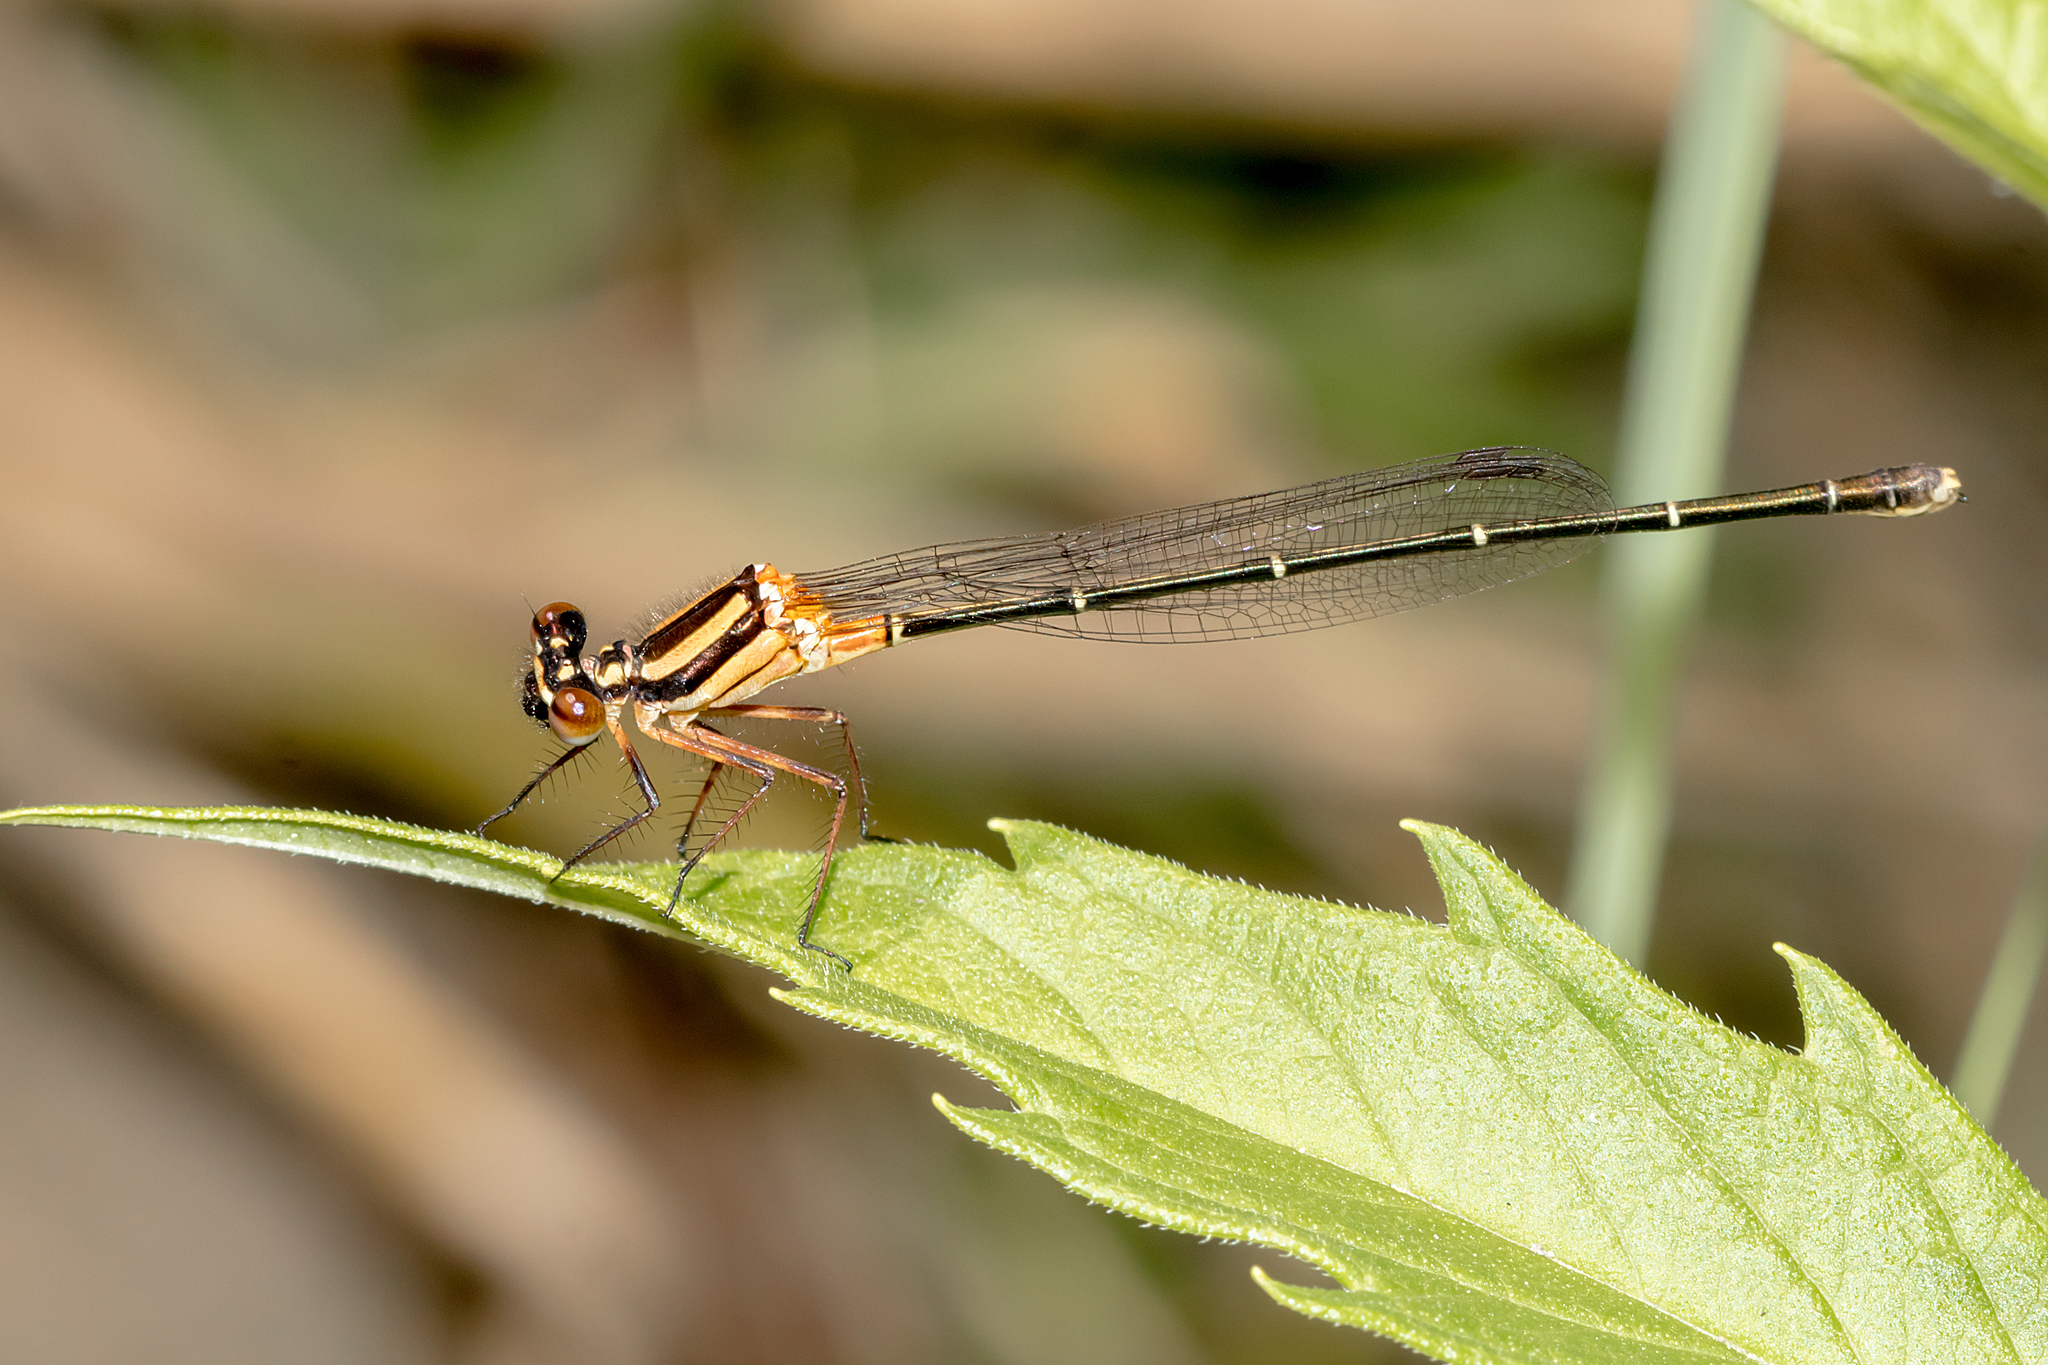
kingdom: Animalia
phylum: Arthropoda
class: Insecta
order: Odonata
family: Platycnemididae
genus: Nososticta
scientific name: Nososticta solida
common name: Orange threadtail
